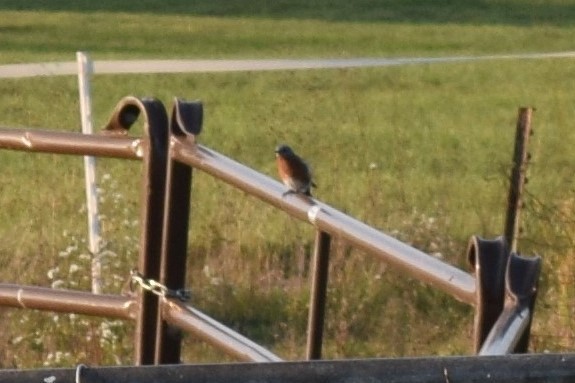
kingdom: Animalia
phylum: Chordata
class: Aves
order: Passeriformes
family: Turdidae
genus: Sialia
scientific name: Sialia sialis
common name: Eastern bluebird
